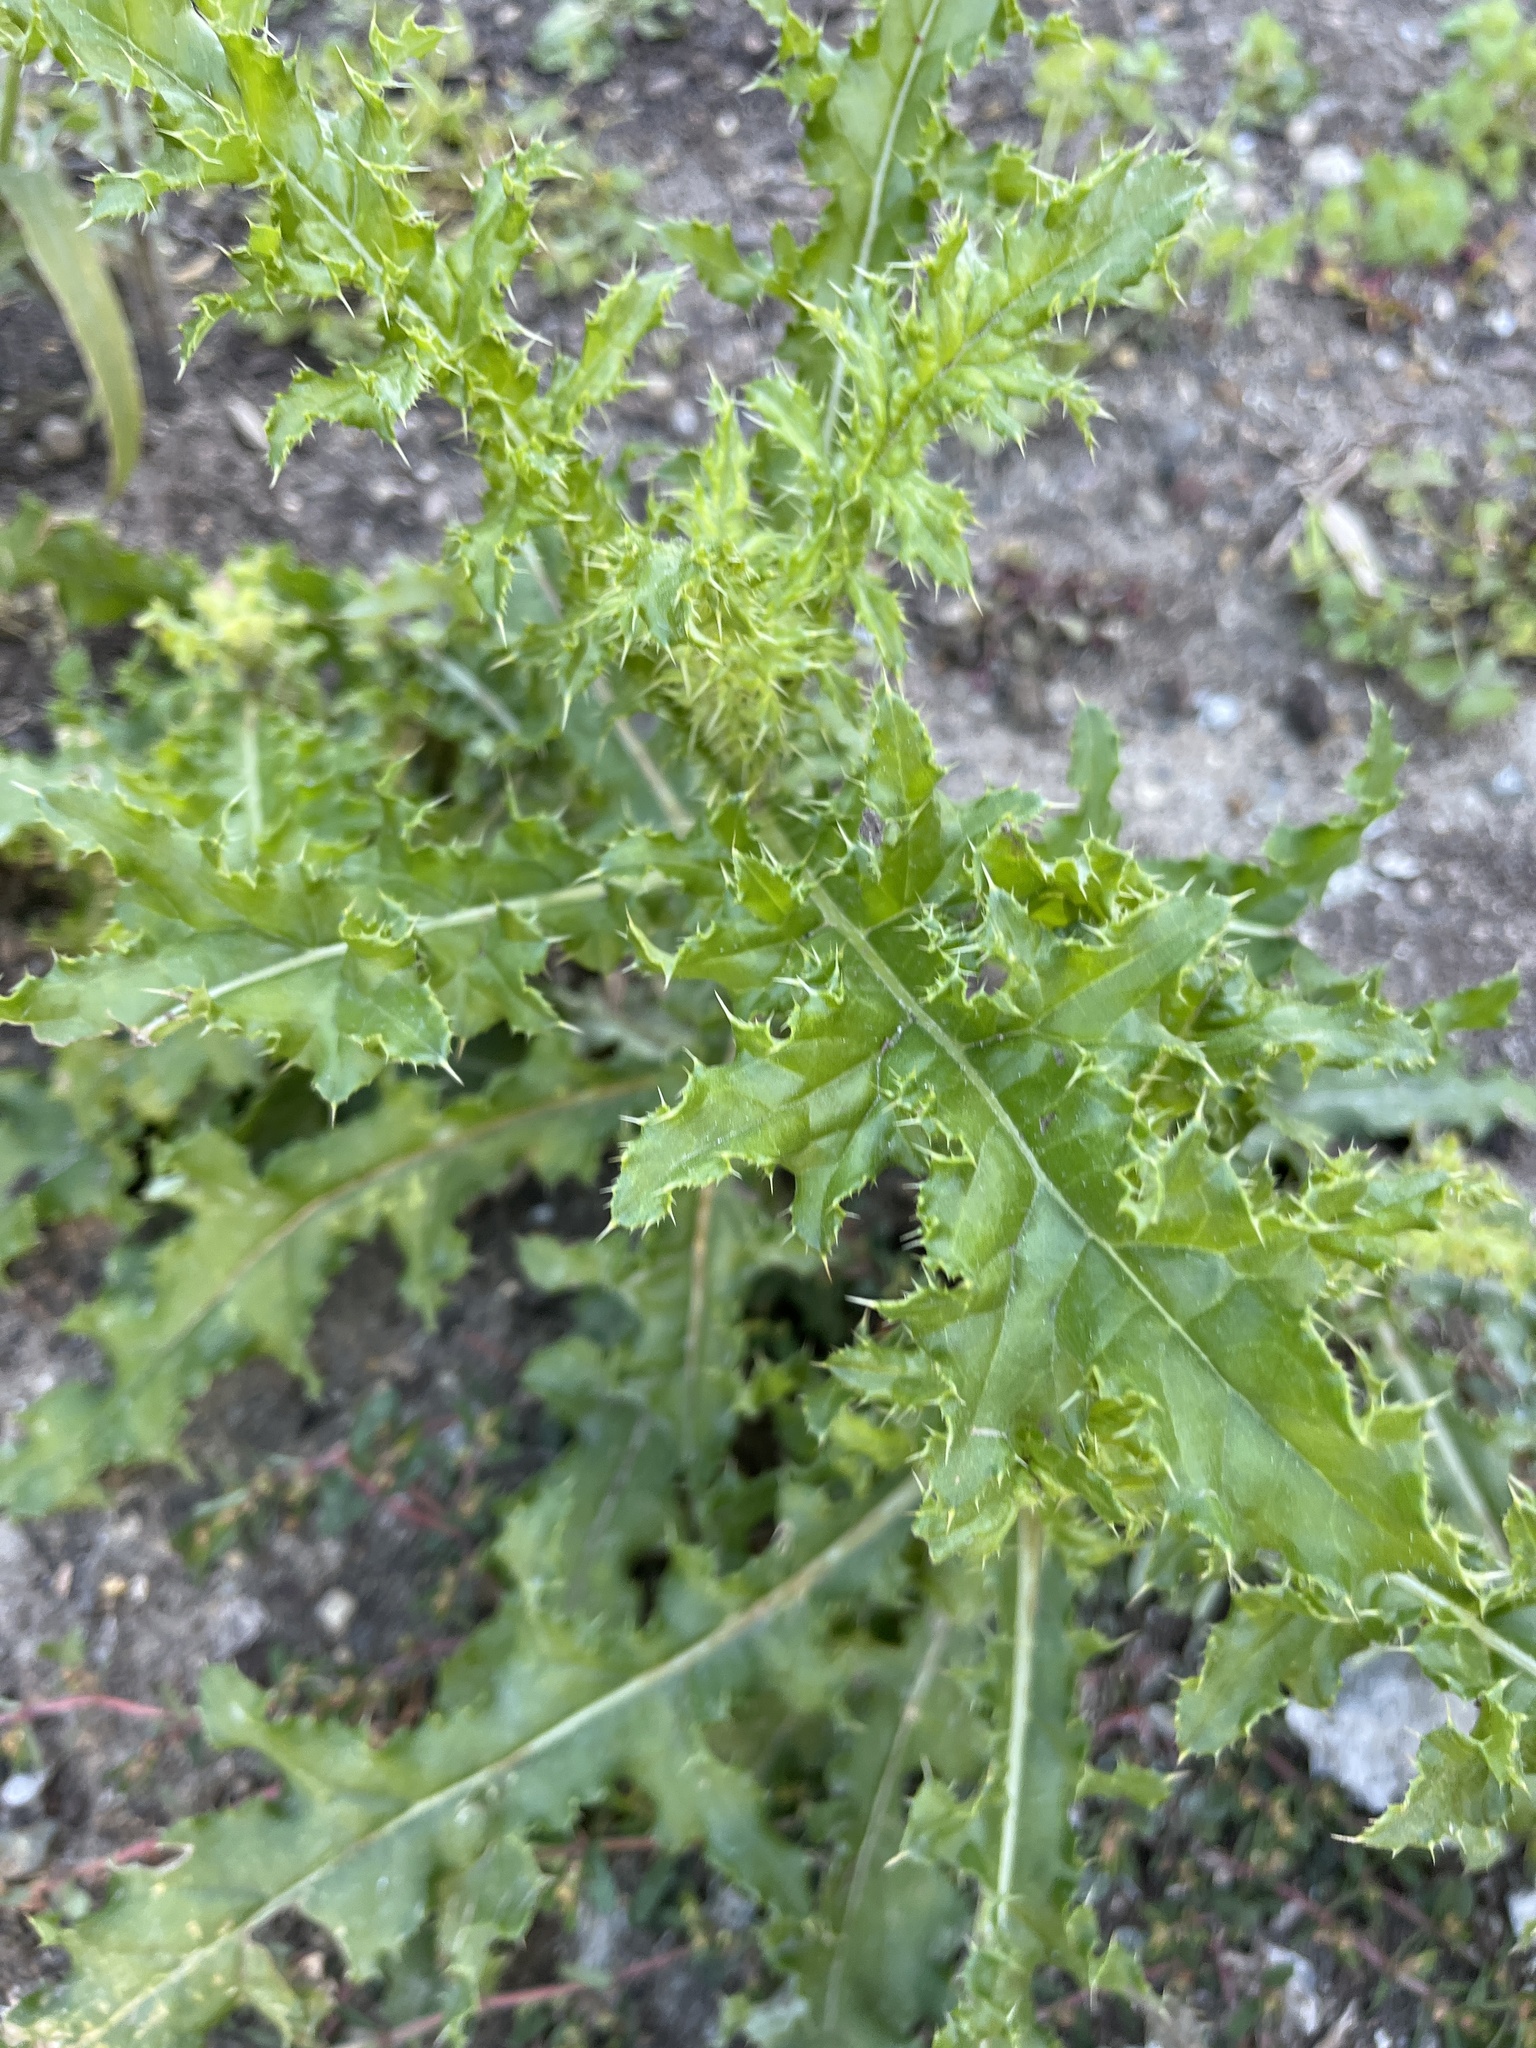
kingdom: Plantae
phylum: Tracheophyta
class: Magnoliopsida
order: Asterales
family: Asteraceae
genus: Cirsium
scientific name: Cirsium arvense
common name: Creeping thistle
